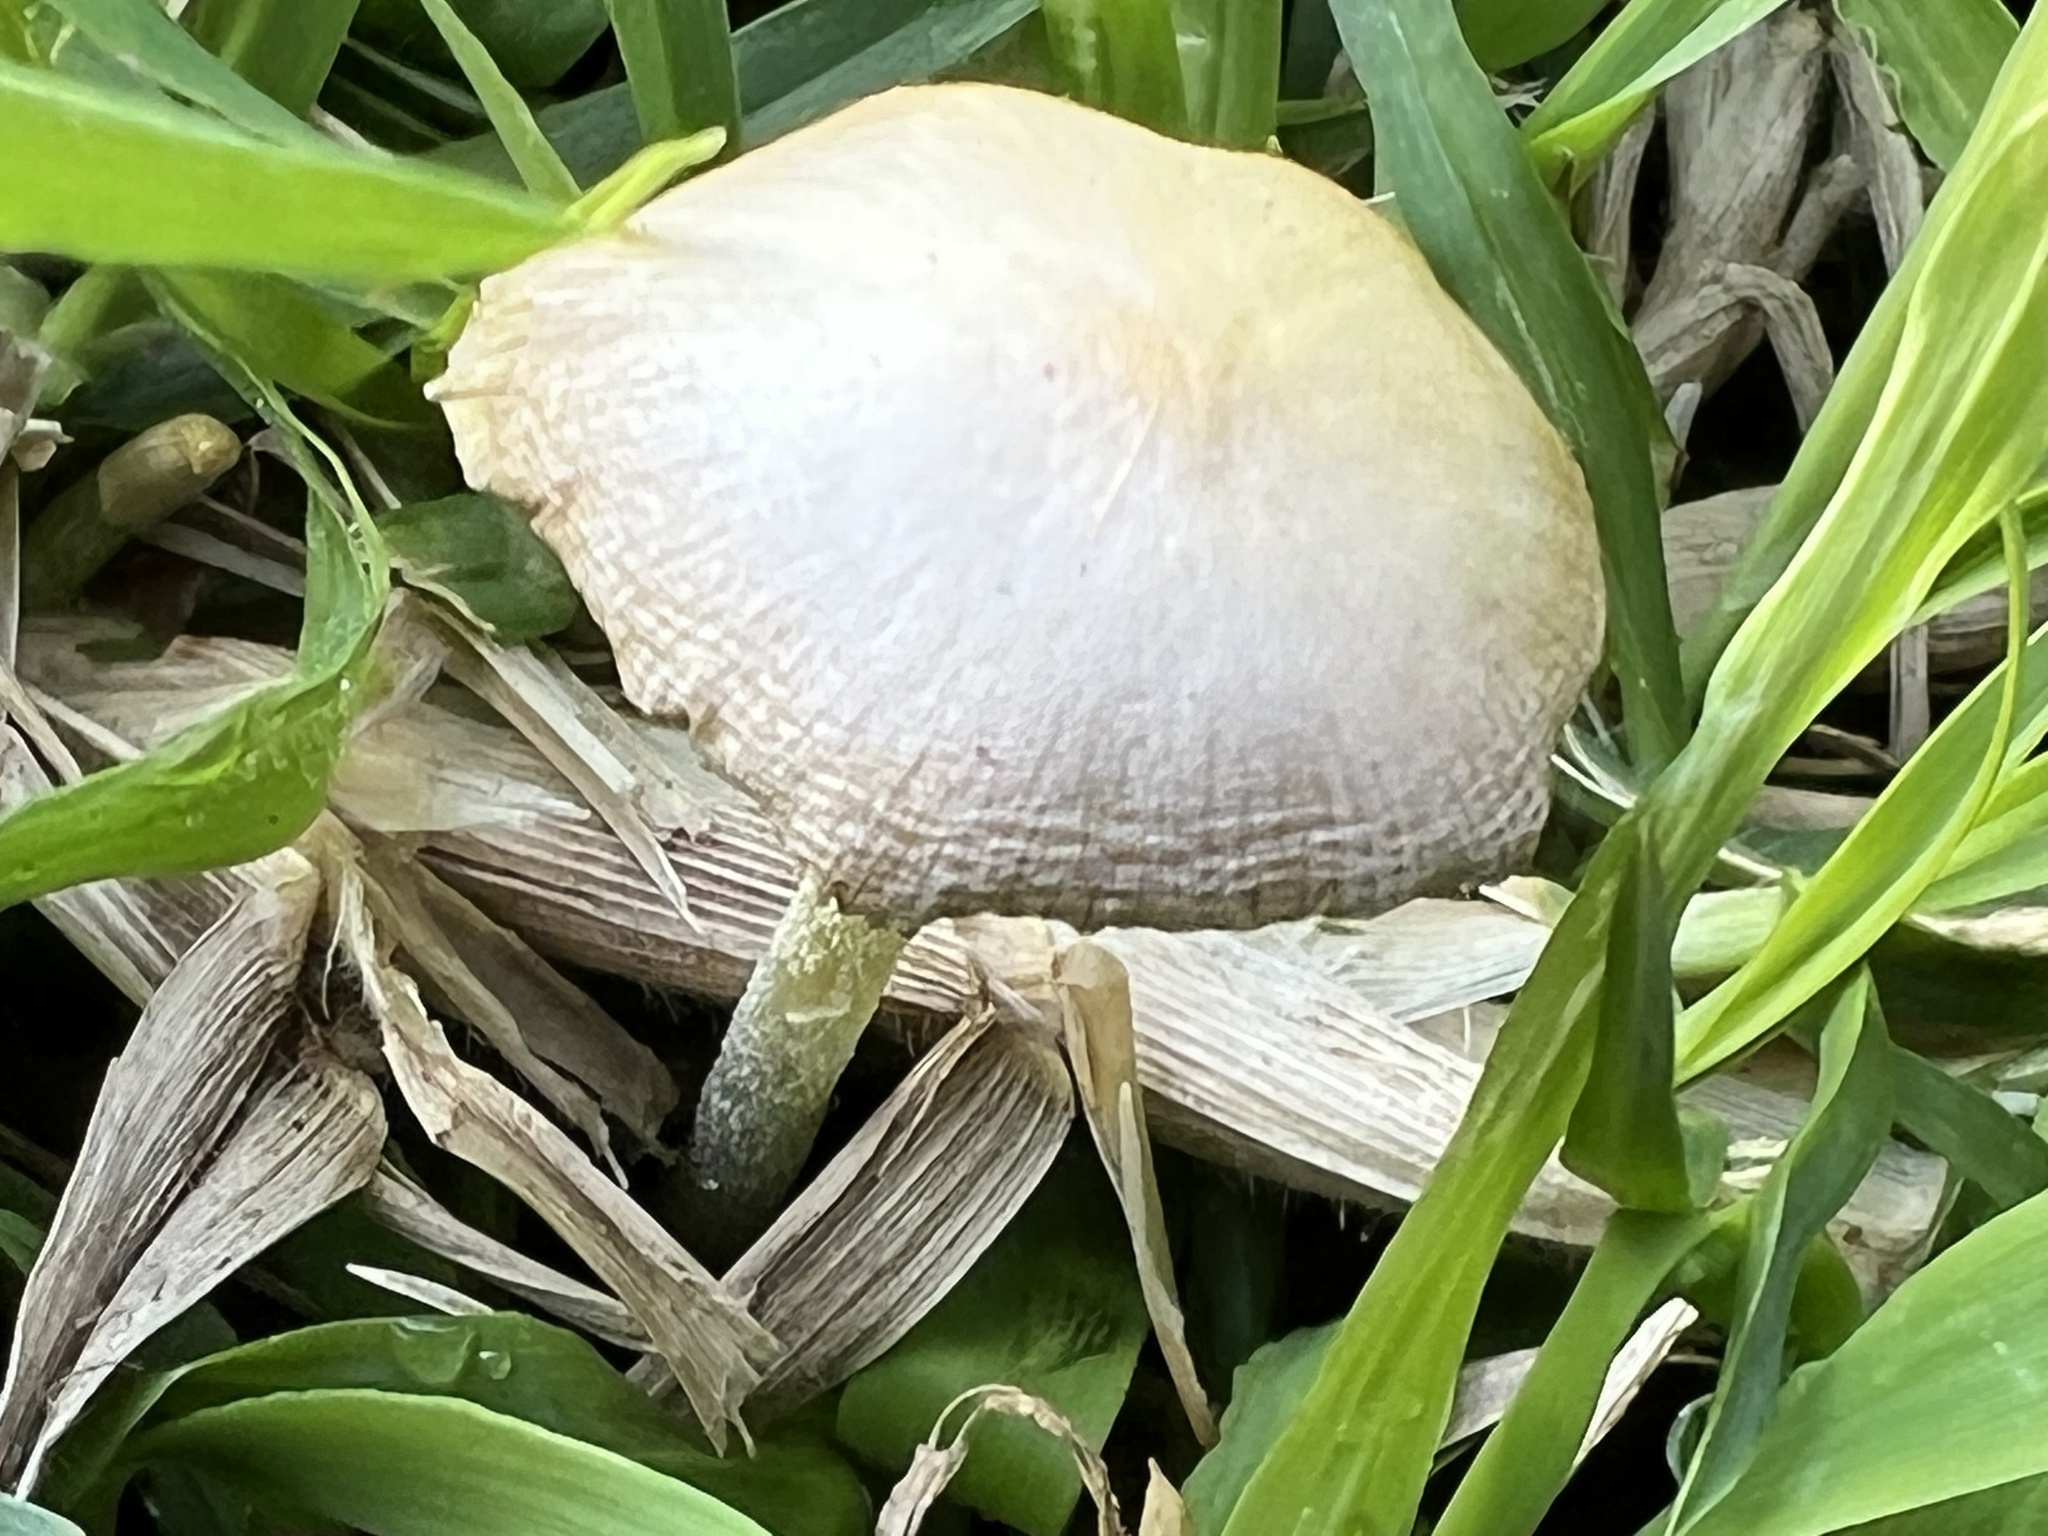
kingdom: Fungi
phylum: Basidiomycota
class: Agaricomycetes
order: Agaricales
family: Bolbitiaceae
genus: Bolbitius
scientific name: Bolbitius titubans
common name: Yellow fieldcap
